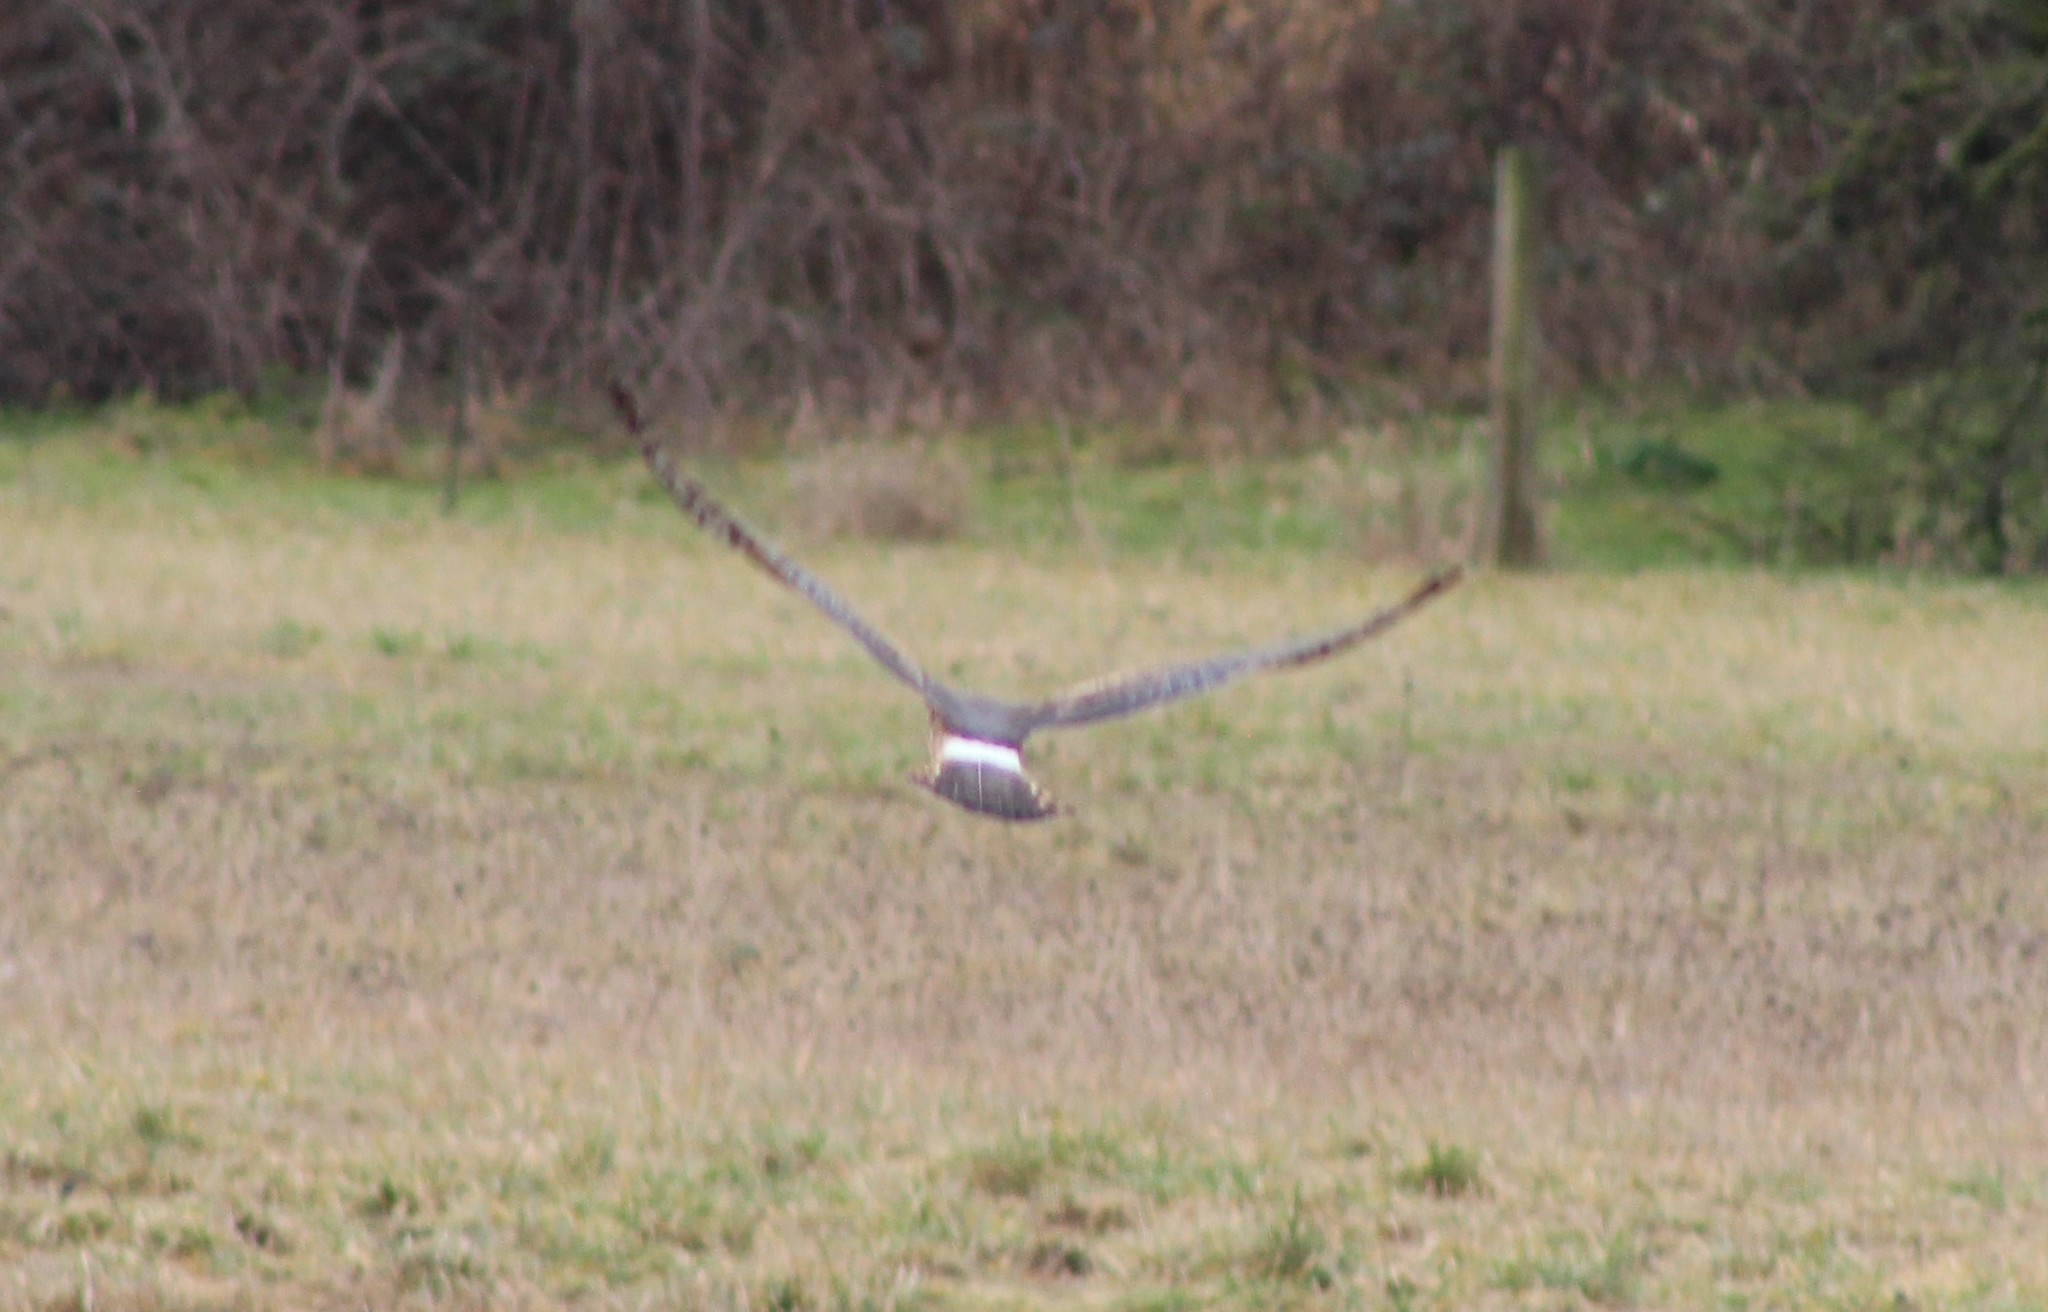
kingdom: Animalia
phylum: Chordata
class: Aves
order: Accipitriformes
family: Accipitridae
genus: Circus
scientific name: Circus cyaneus
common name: Hen harrier
